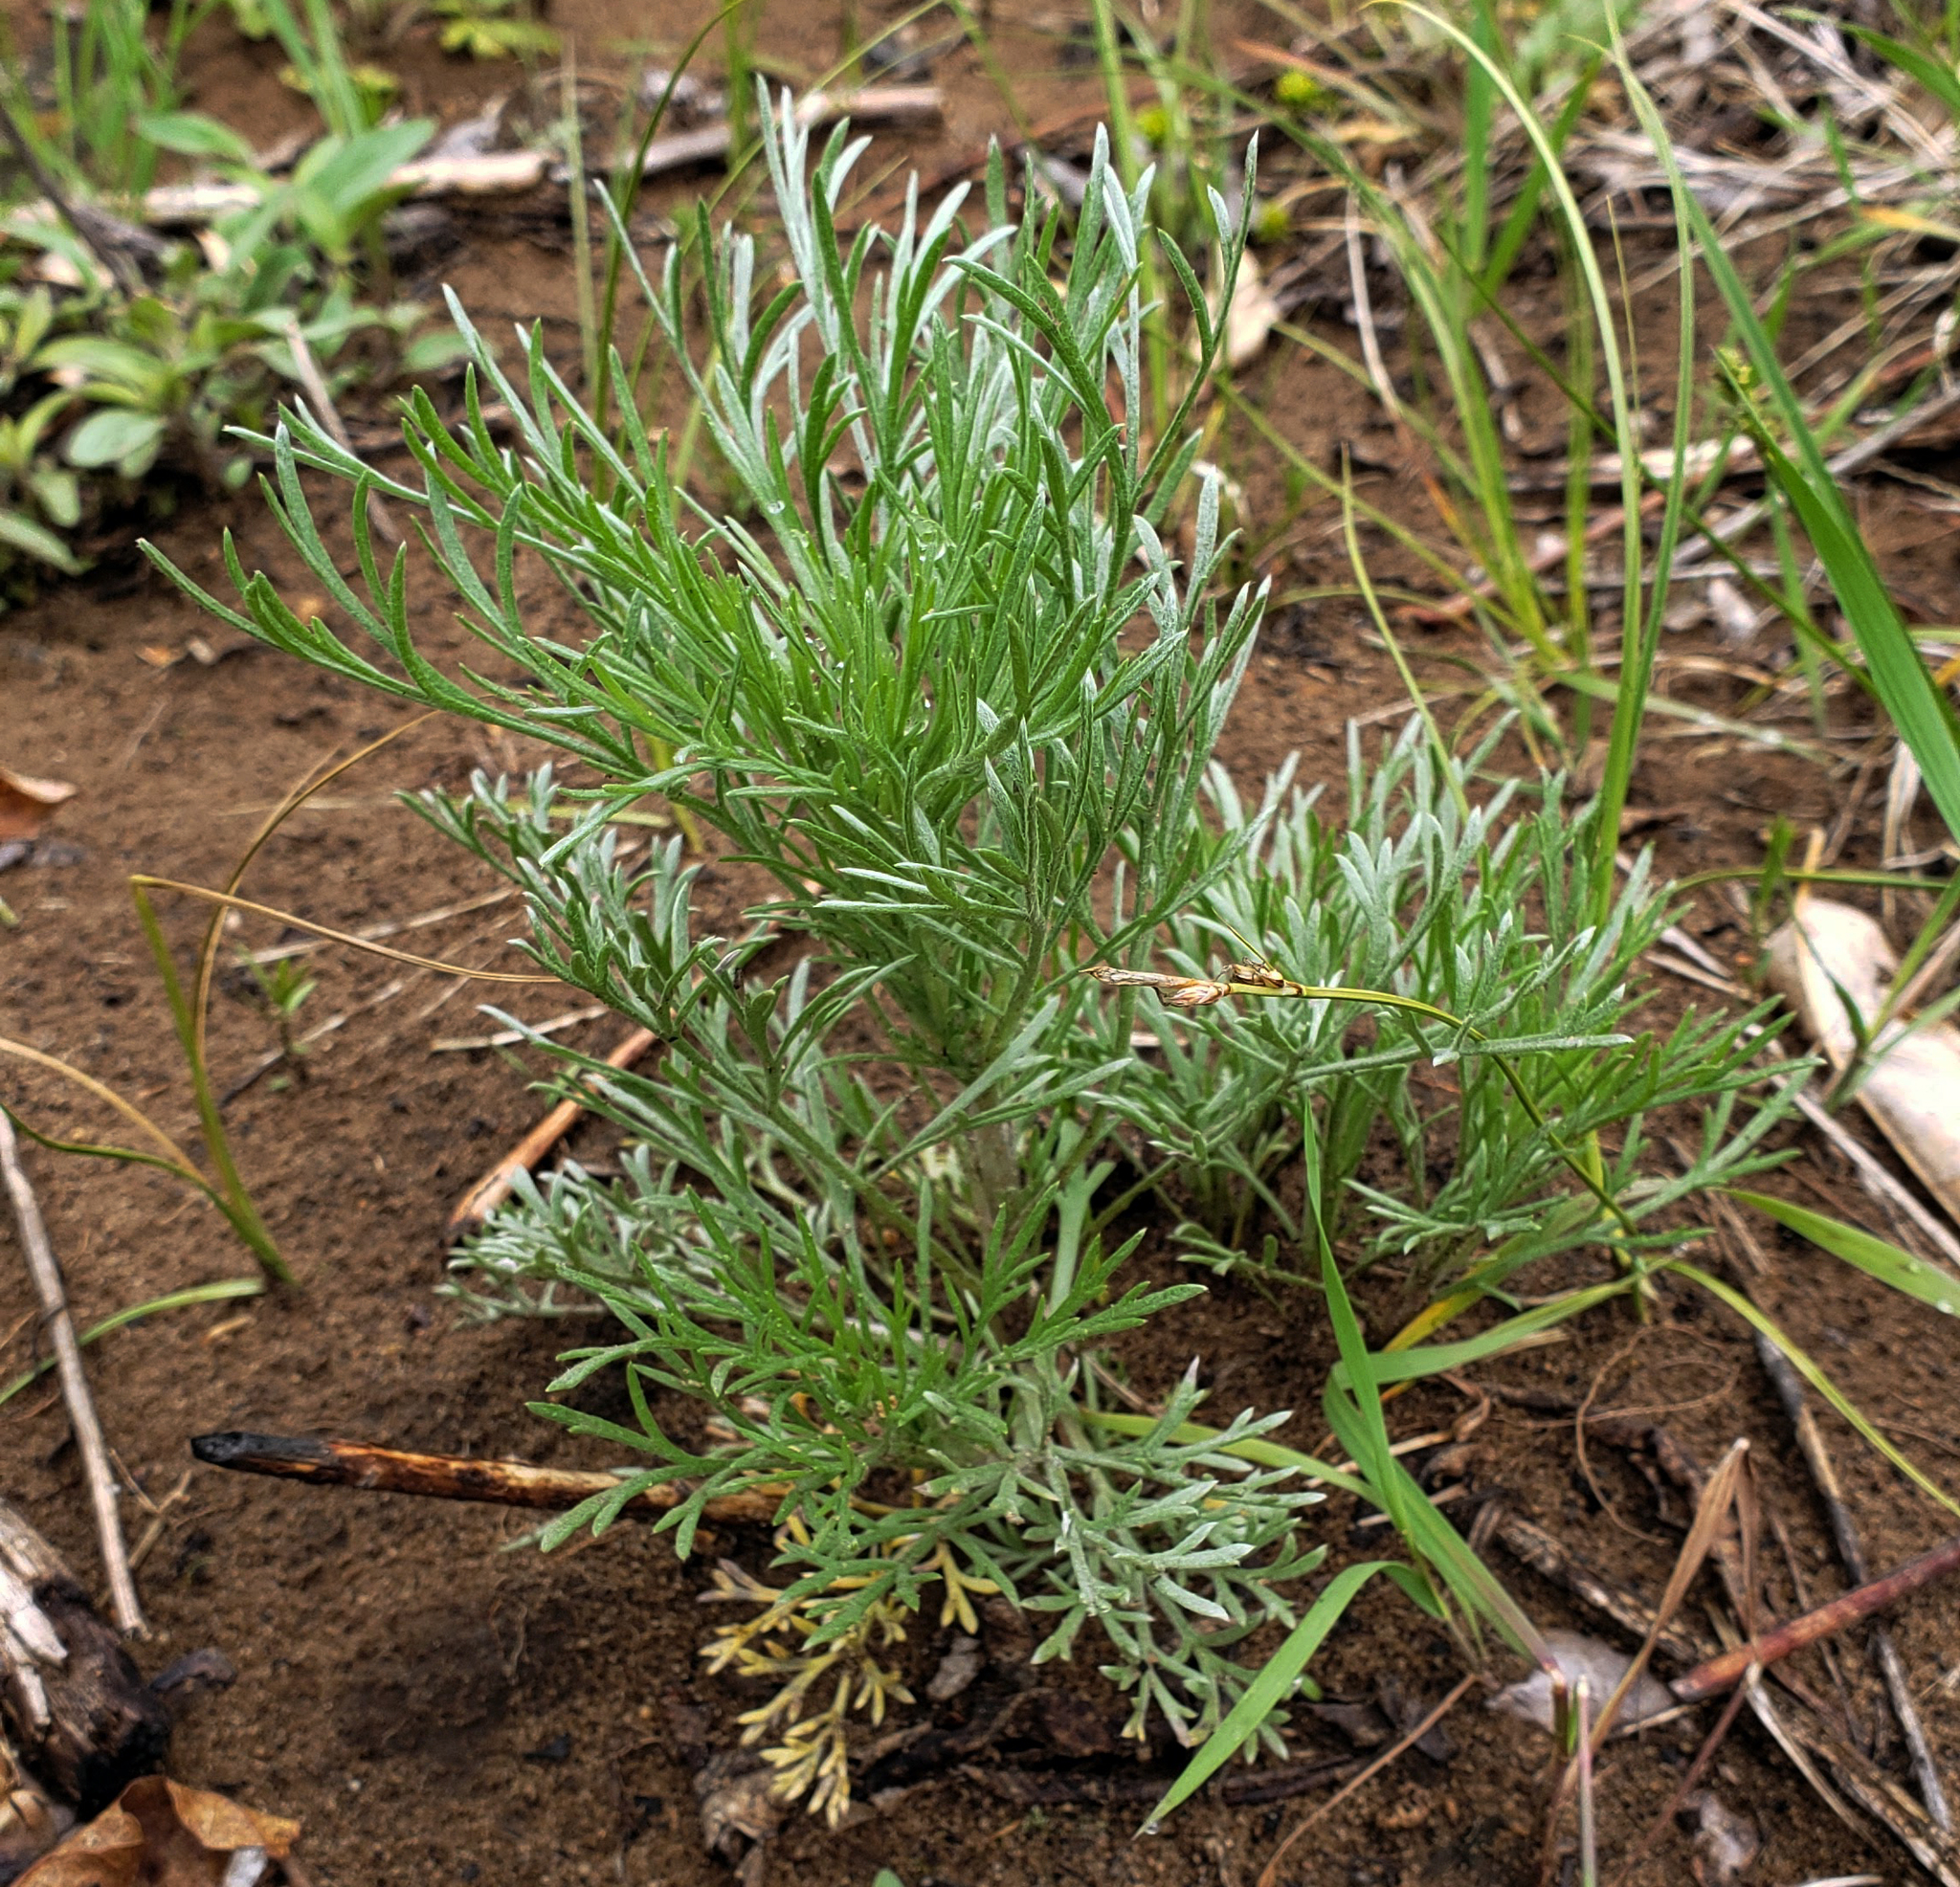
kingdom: Plantae
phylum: Tracheophyta
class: Magnoliopsida
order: Asterales
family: Asteraceae
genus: Artemisia
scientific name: Artemisia campestris
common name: Field wormwood
